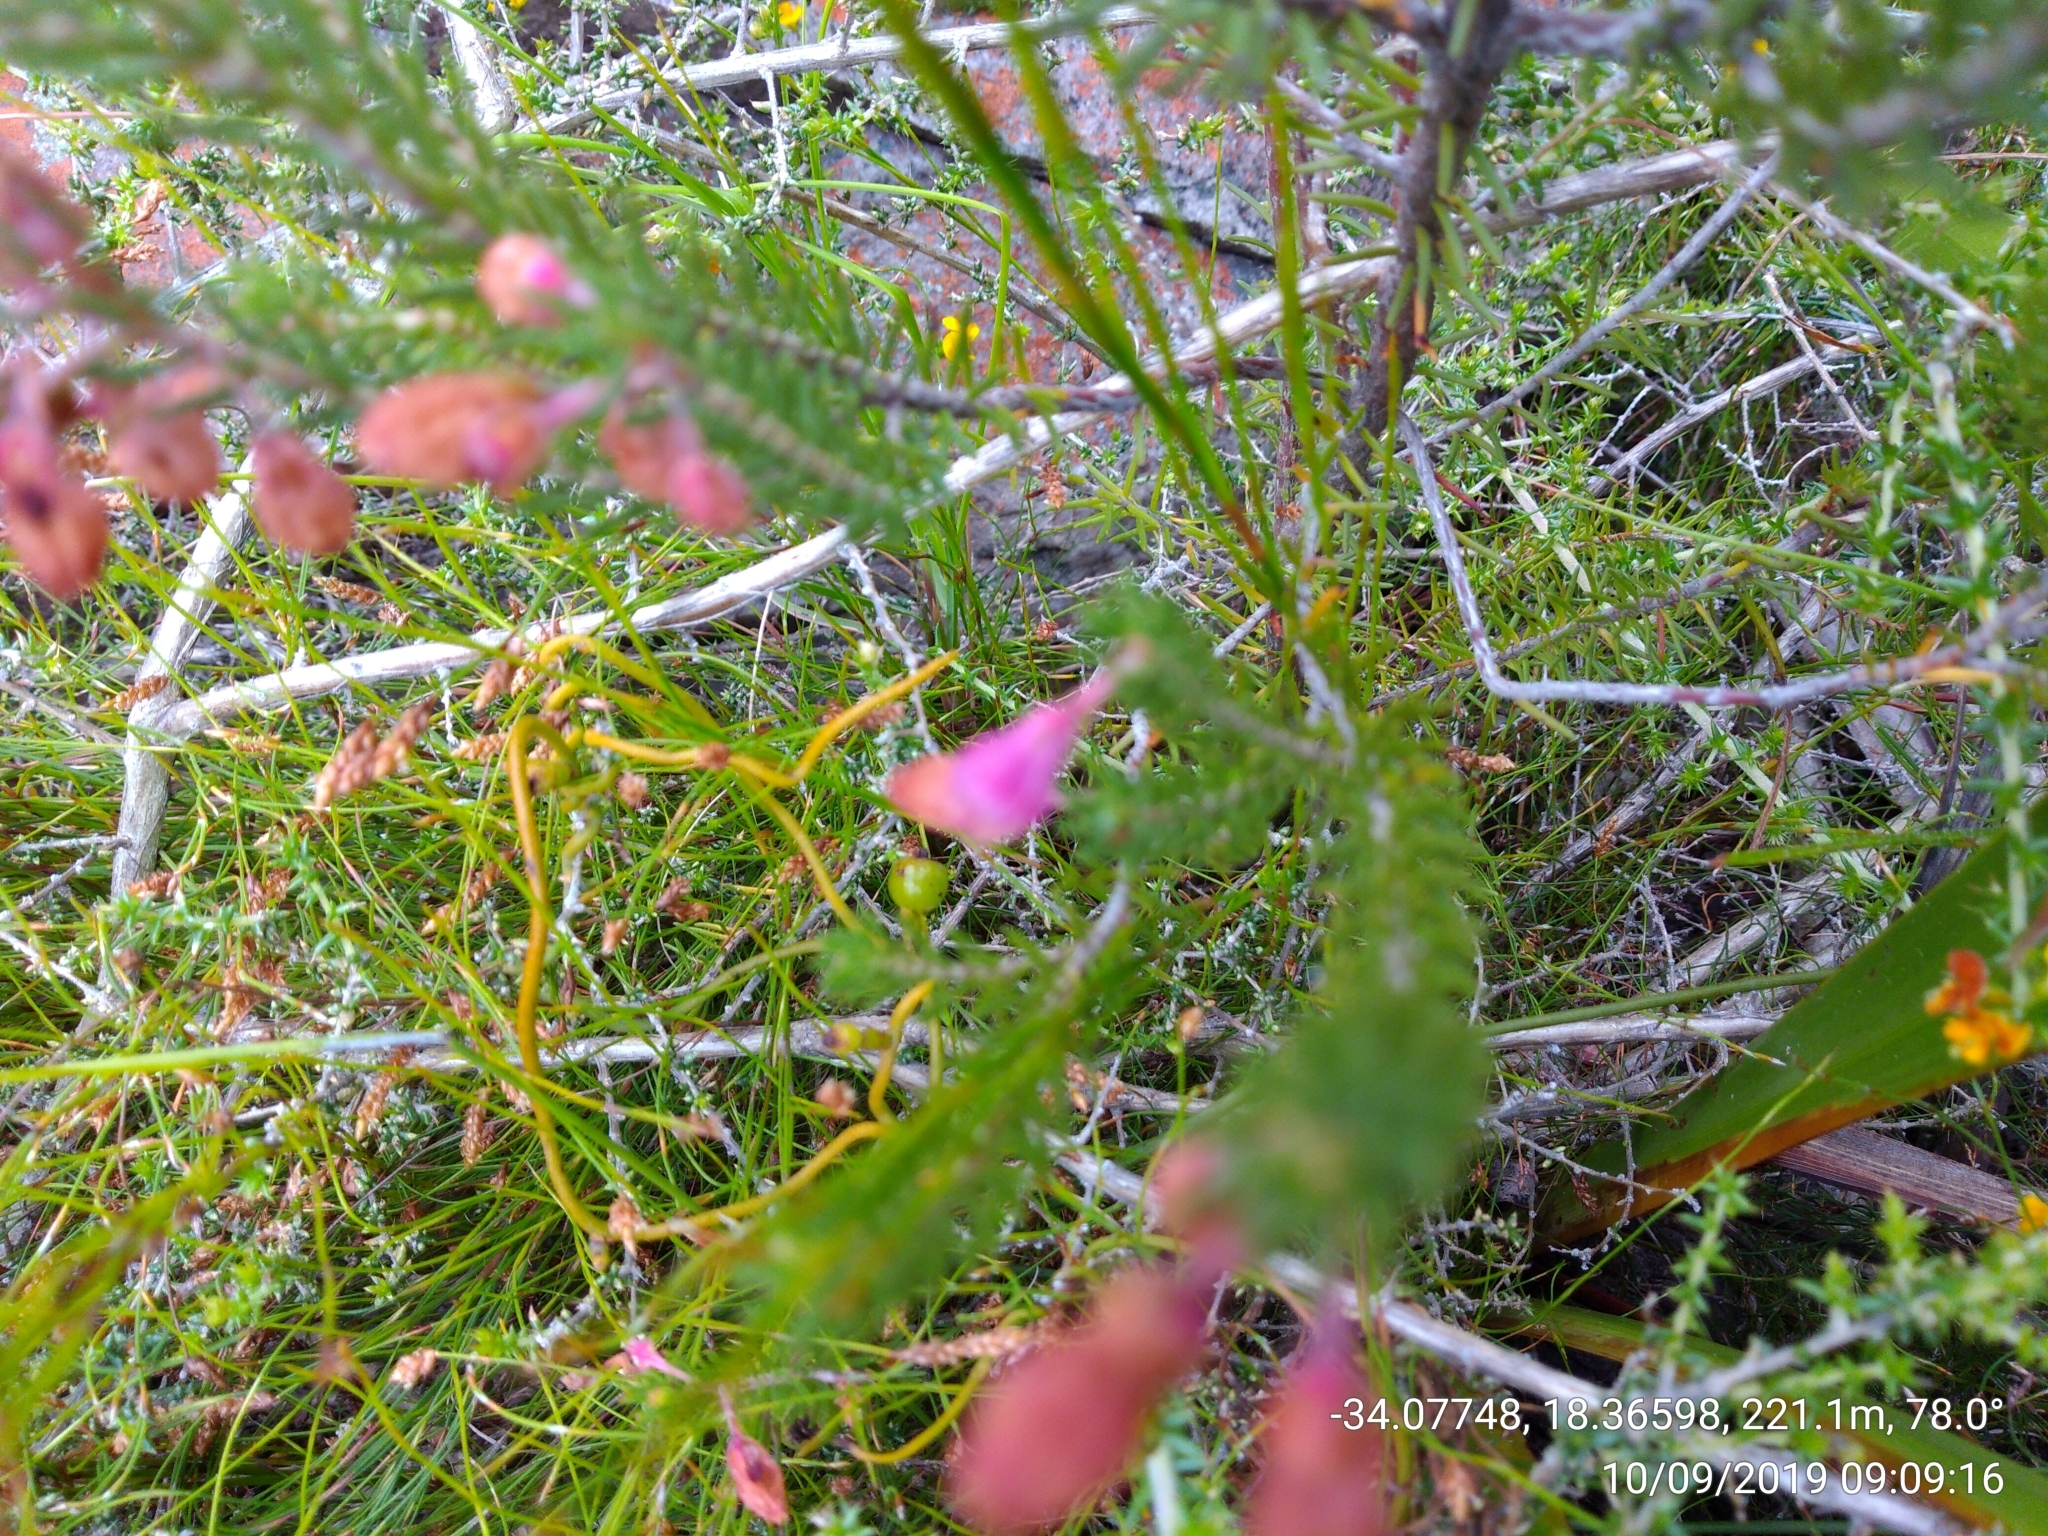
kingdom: Plantae
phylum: Tracheophyta
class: Magnoliopsida
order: Ericales
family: Ericaceae
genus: Erica
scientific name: Erica viscaria
